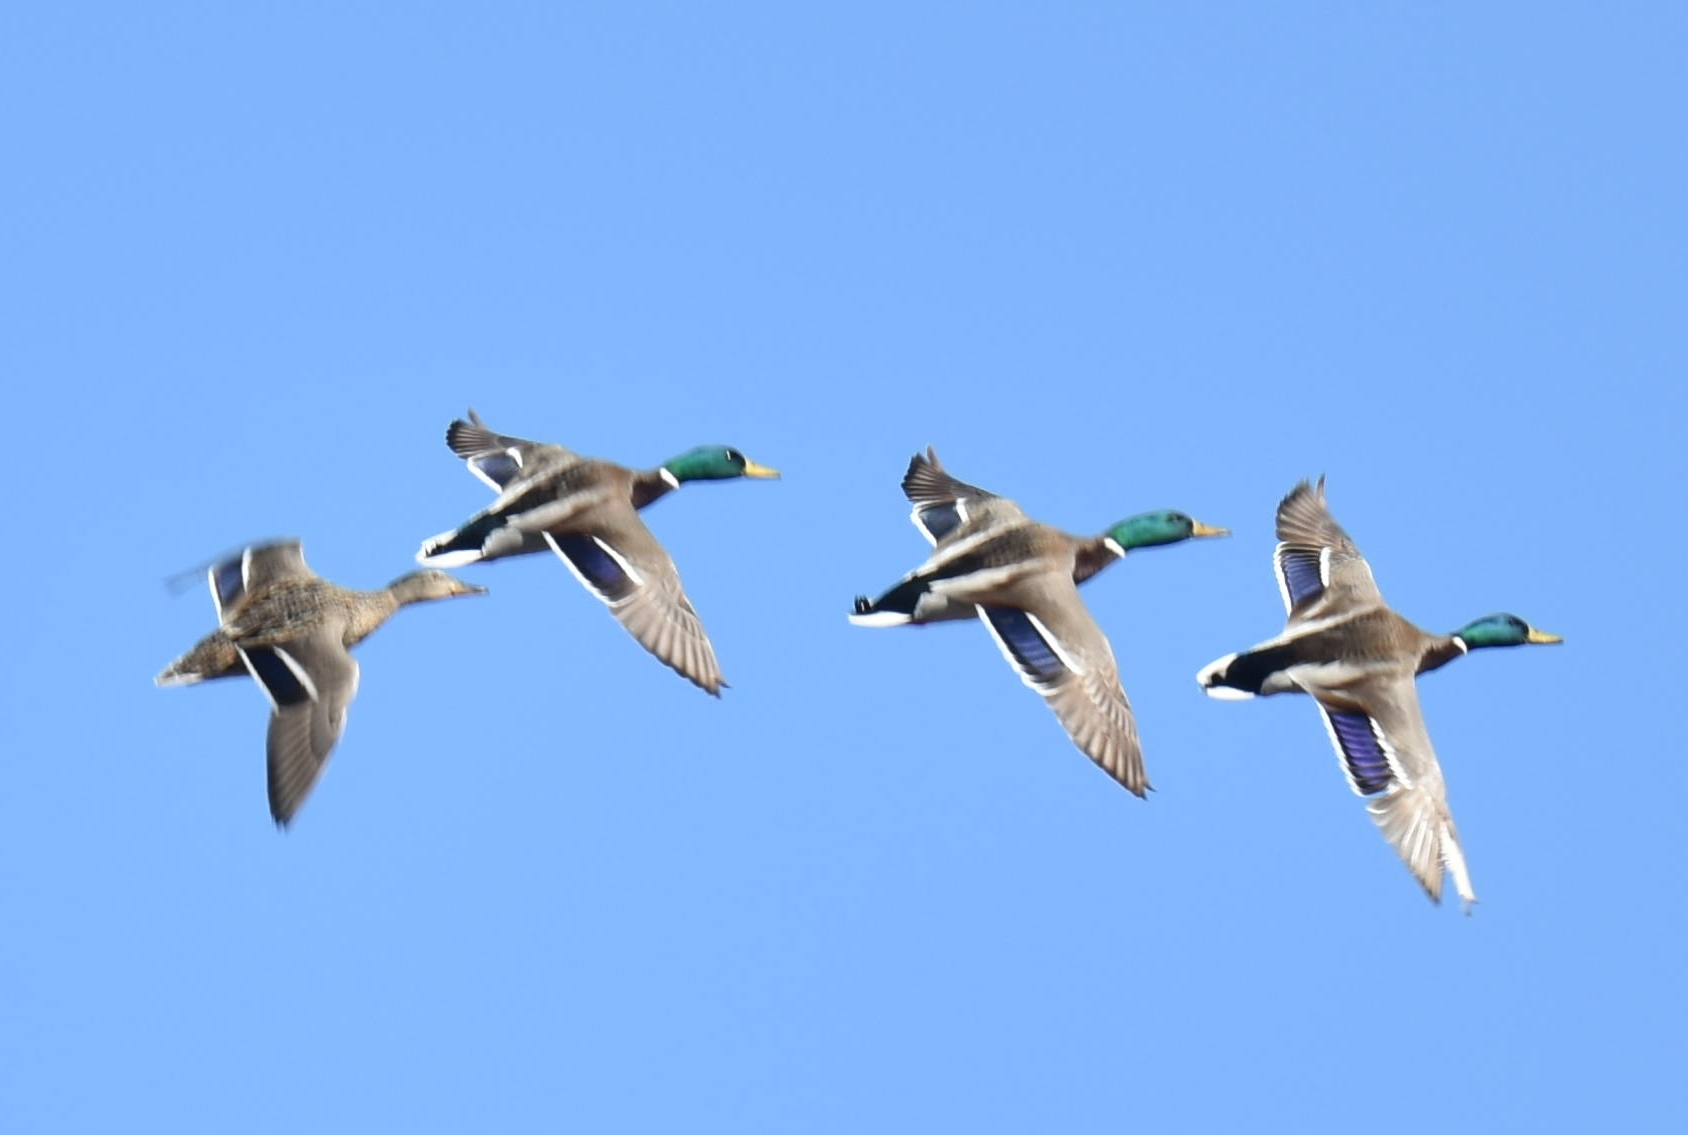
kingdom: Animalia
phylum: Chordata
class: Aves
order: Anseriformes
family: Anatidae
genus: Anas
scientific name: Anas platyrhynchos
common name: Mallard
